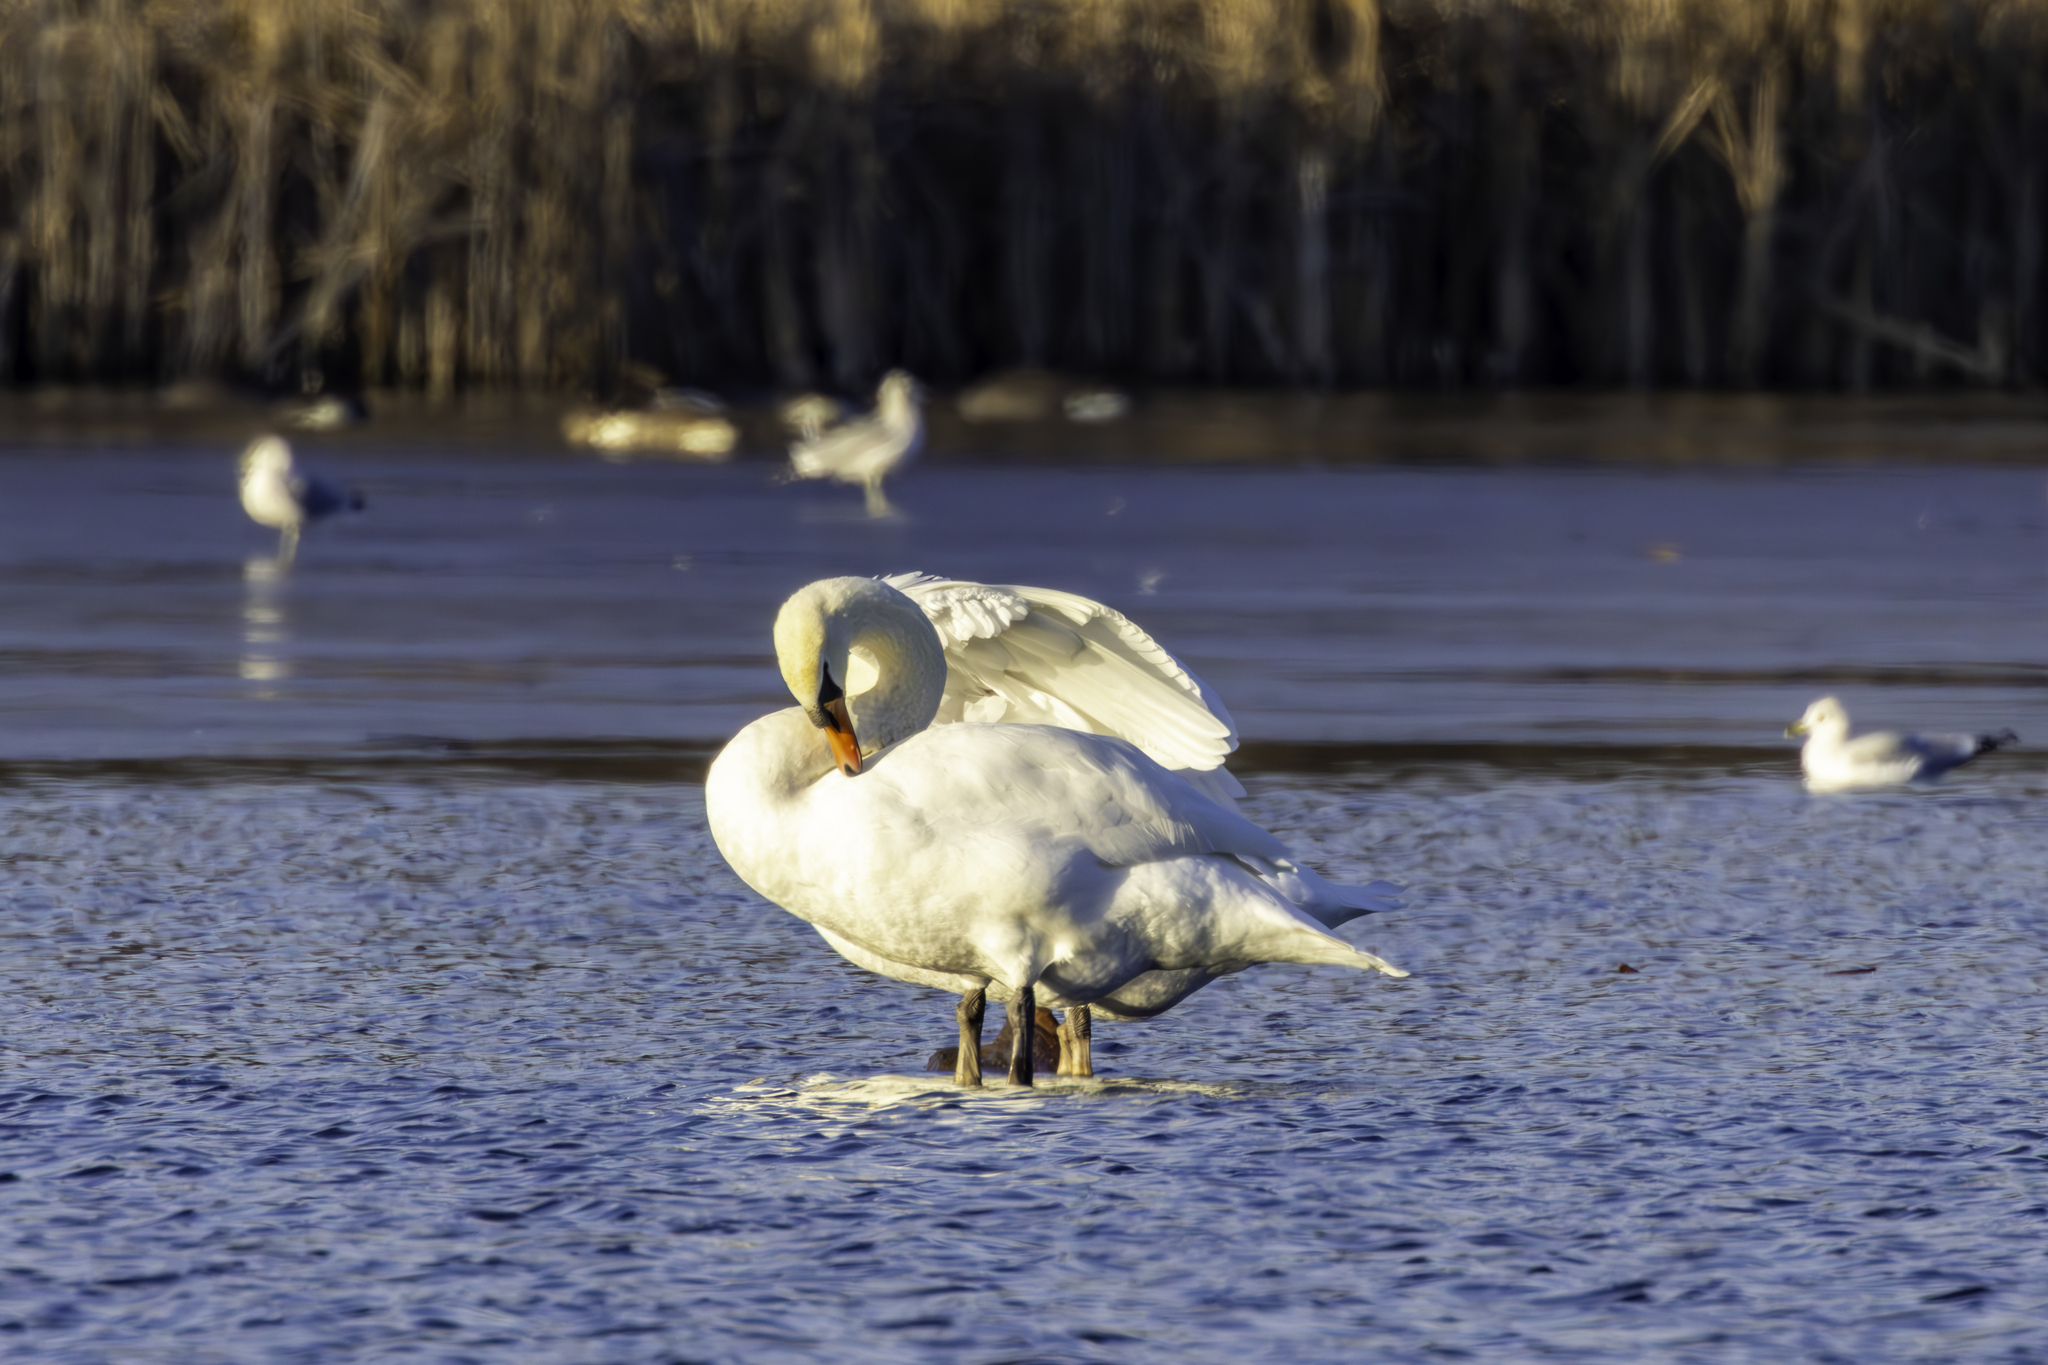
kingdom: Animalia
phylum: Chordata
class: Aves
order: Anseriformes
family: Anatidae
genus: Cygnus
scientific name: Cygnus olor
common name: Mute swan
